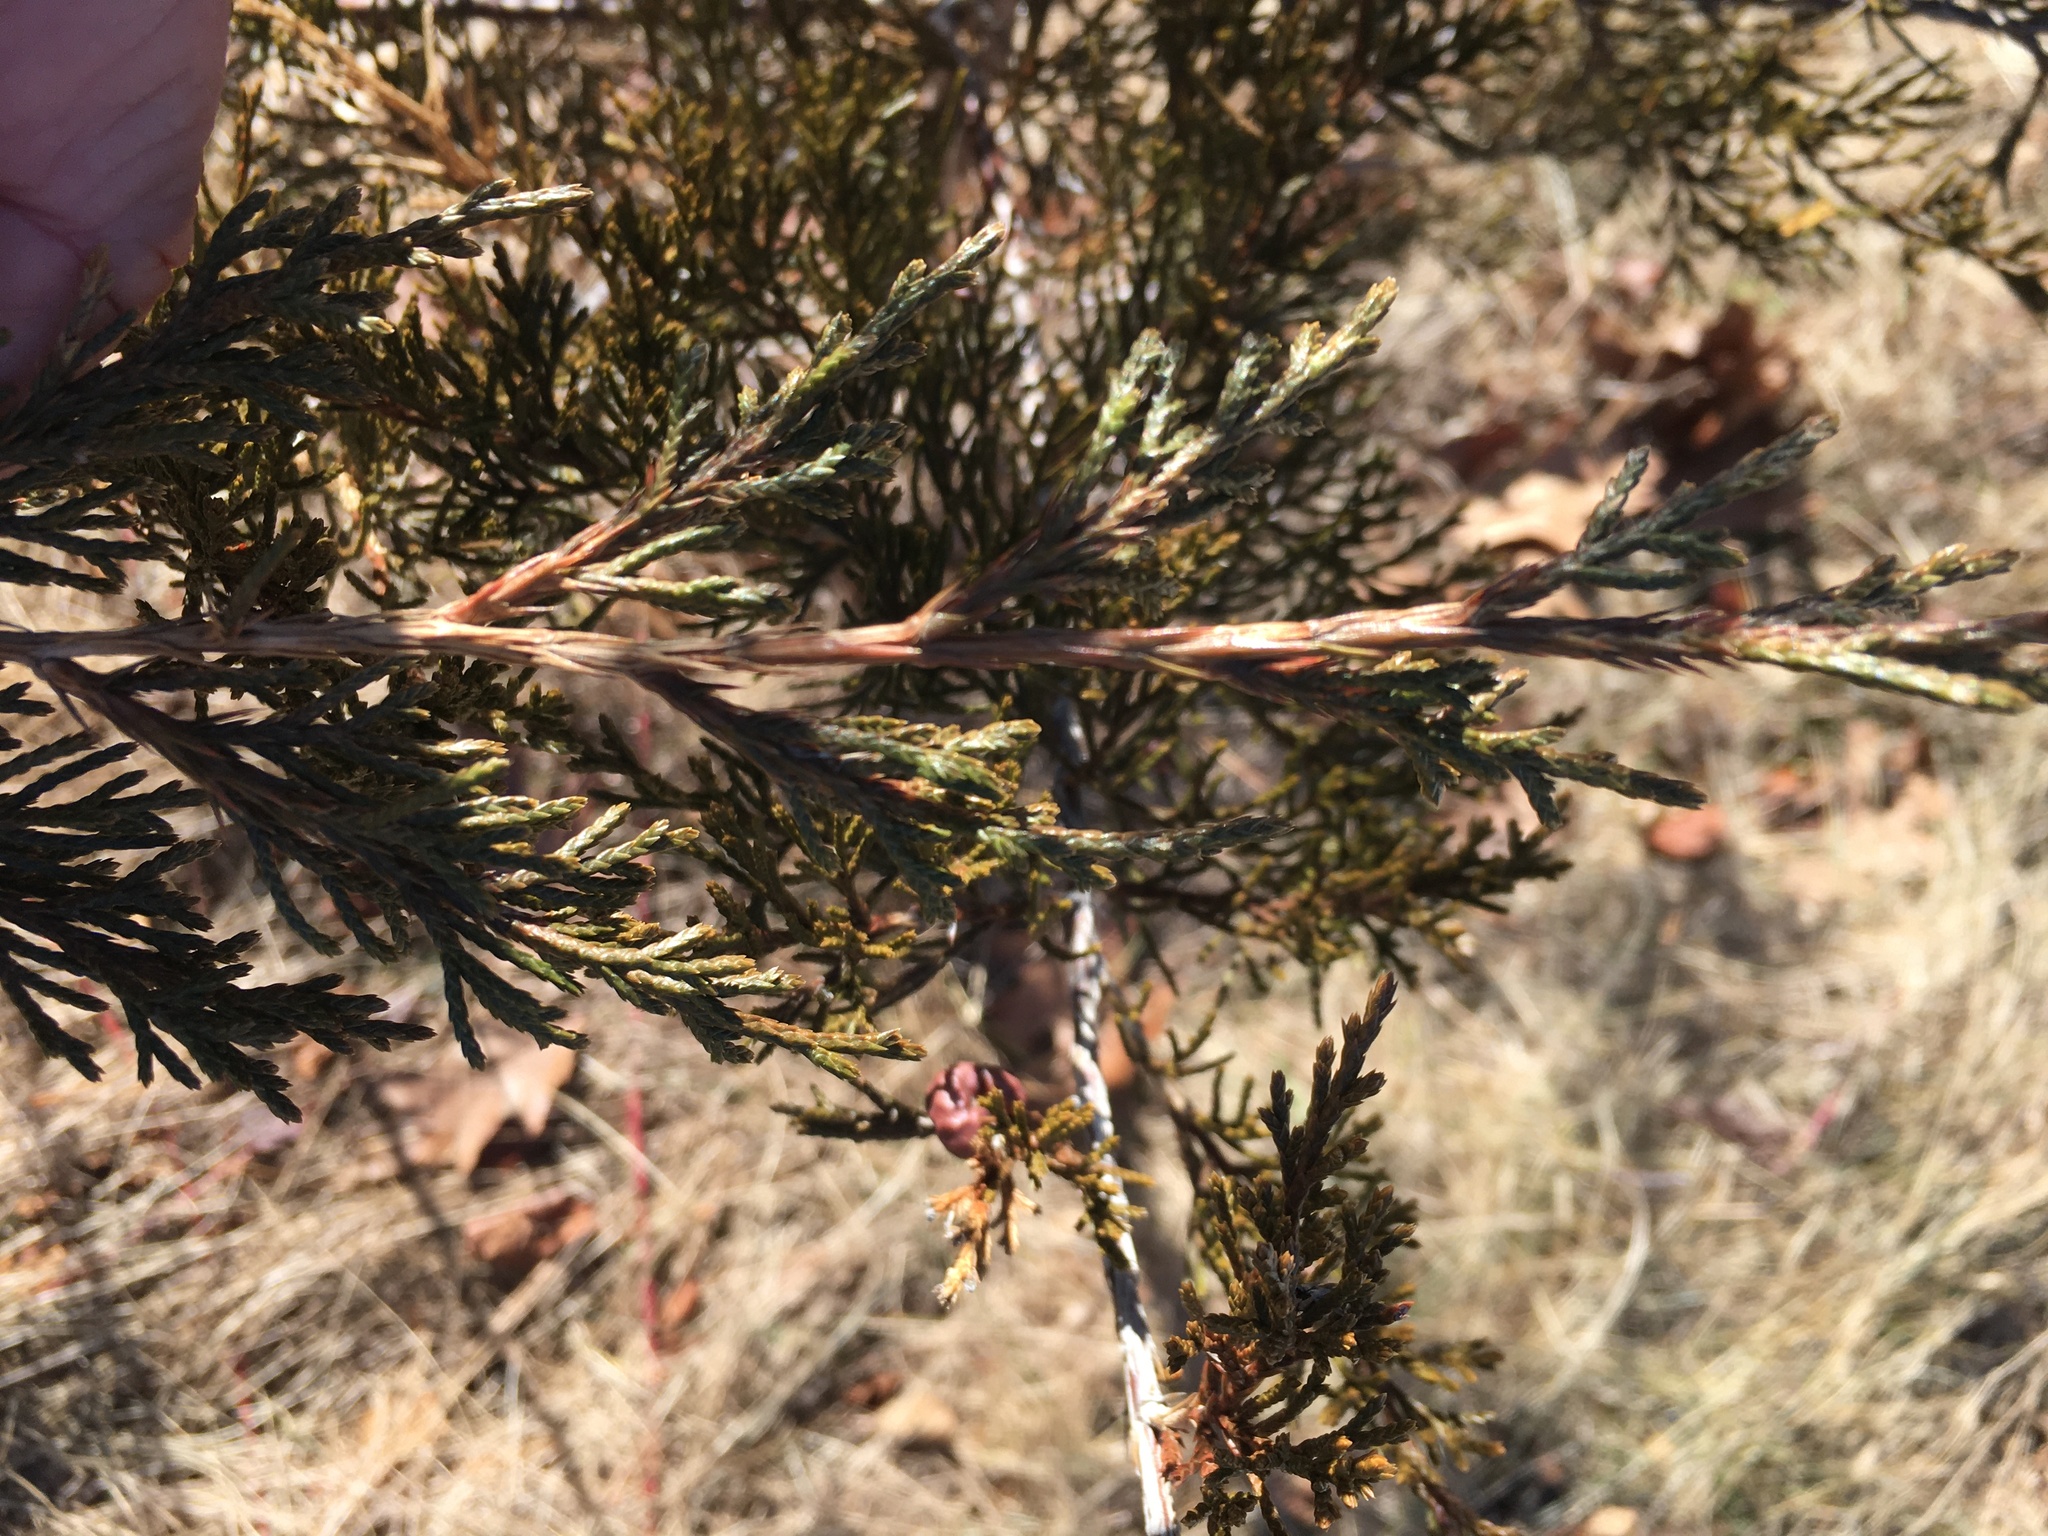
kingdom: Plantae
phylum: Tracheophyta
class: Pinopsida
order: Pinales
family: Cupressaceae
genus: Juniperus
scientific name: Juniperus virginiana
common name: Red juniper
